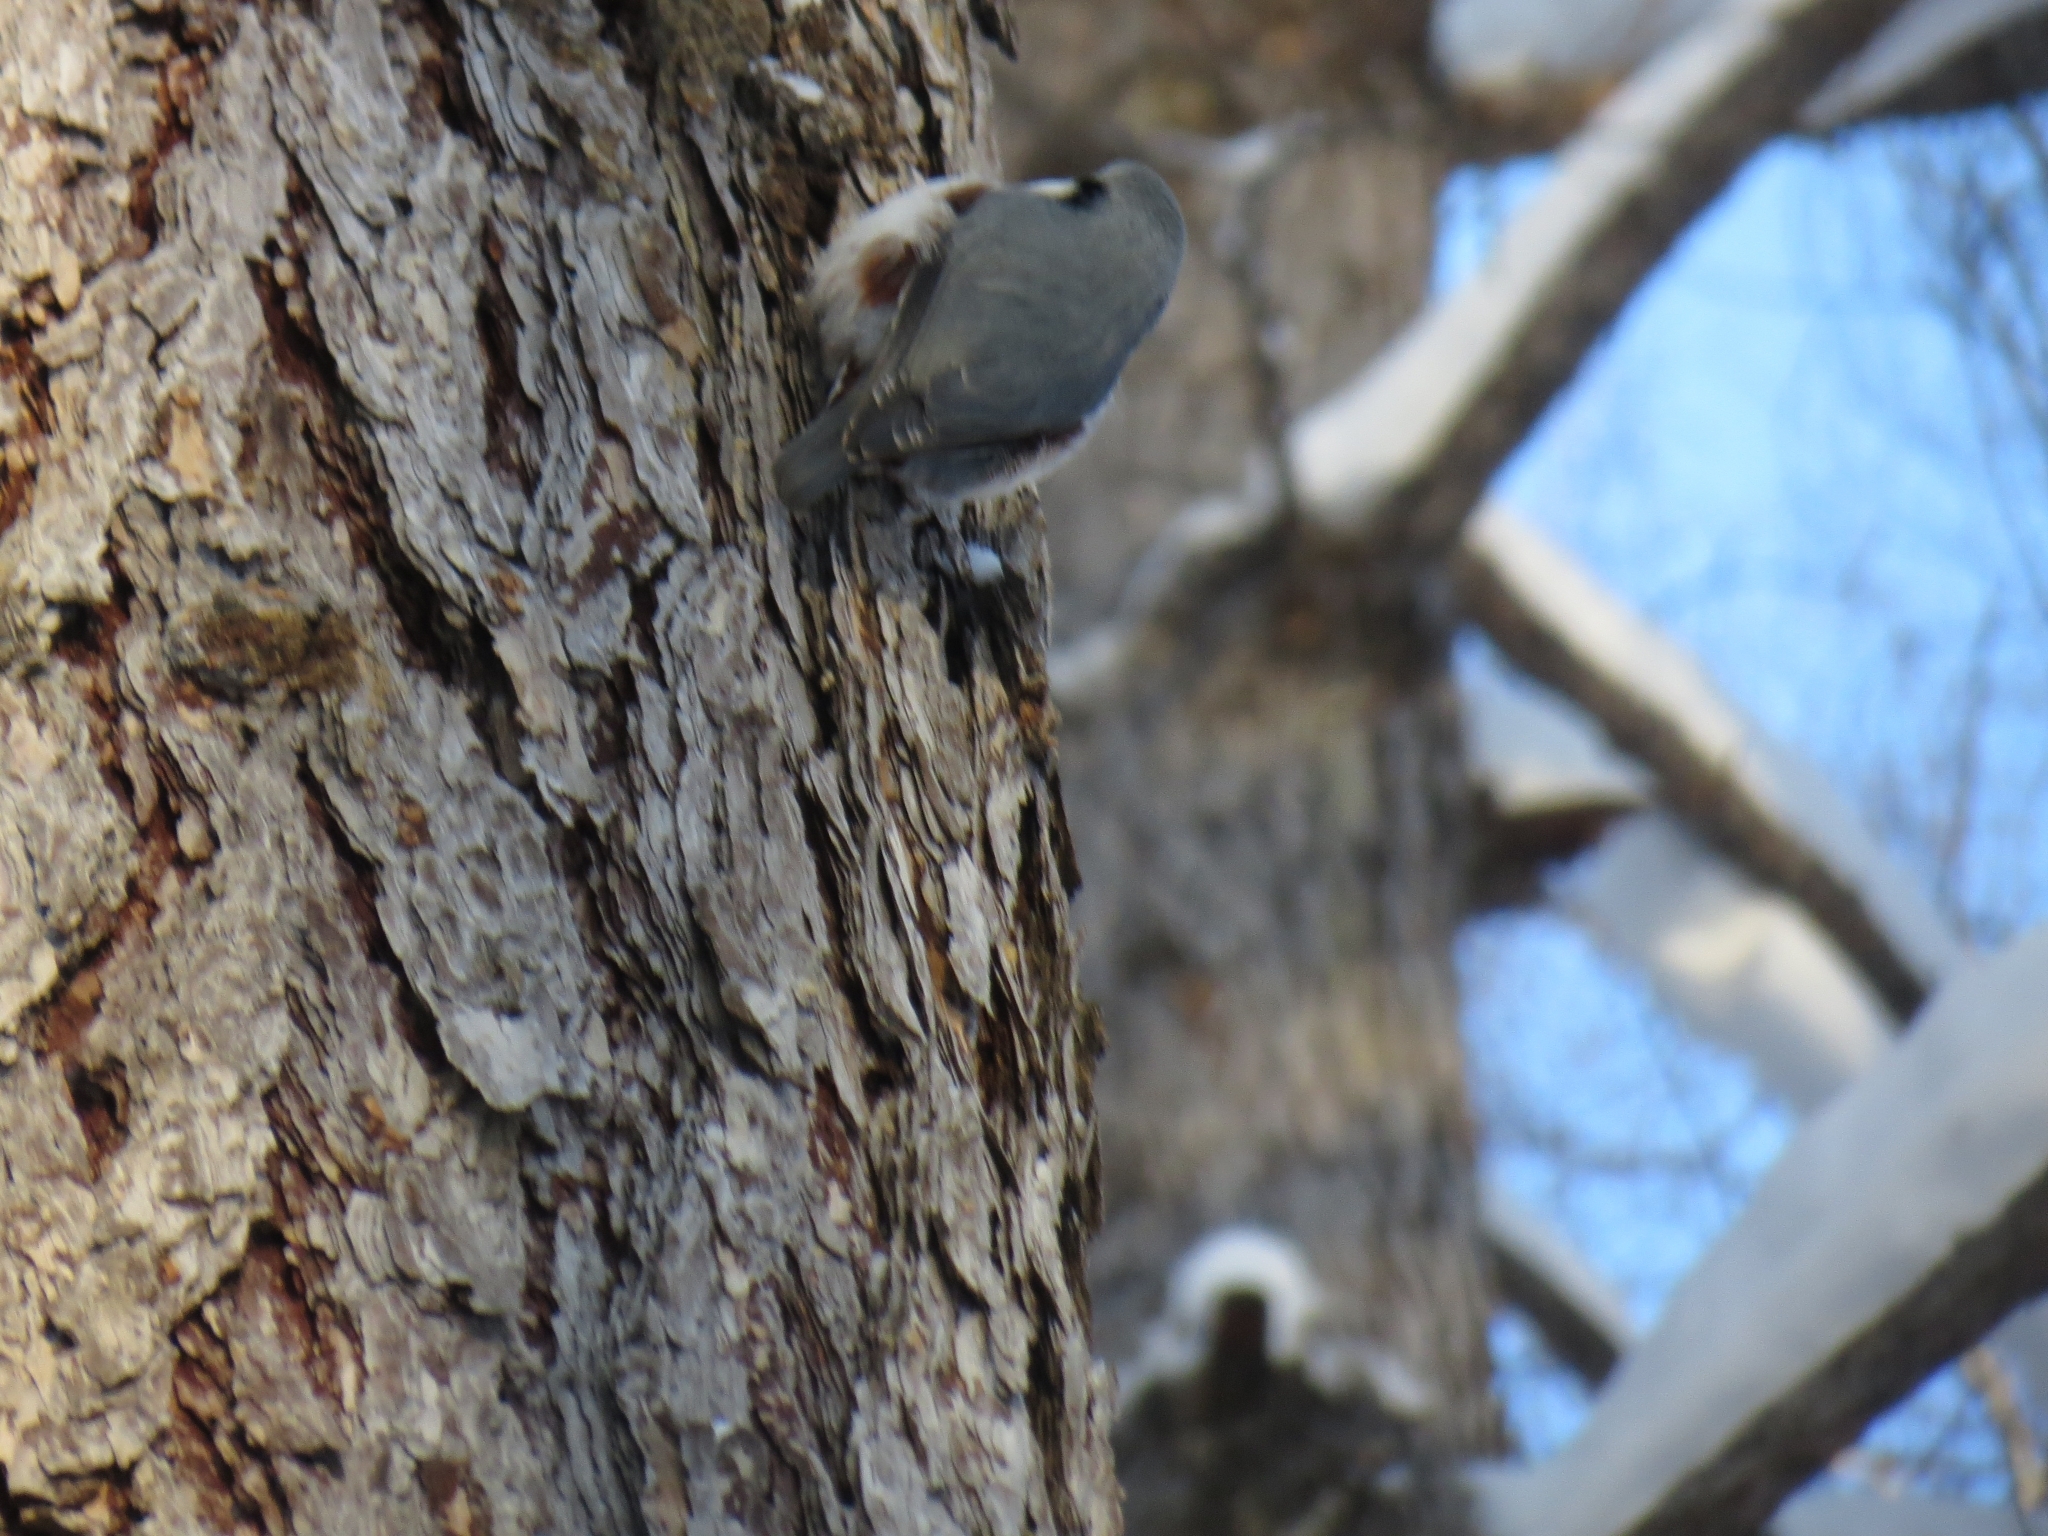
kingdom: Animalia
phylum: Chordata
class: Aves
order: Passeriformes
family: Sittidae
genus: Sitta
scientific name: Sitta europaea
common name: Eurasian nuthatch
